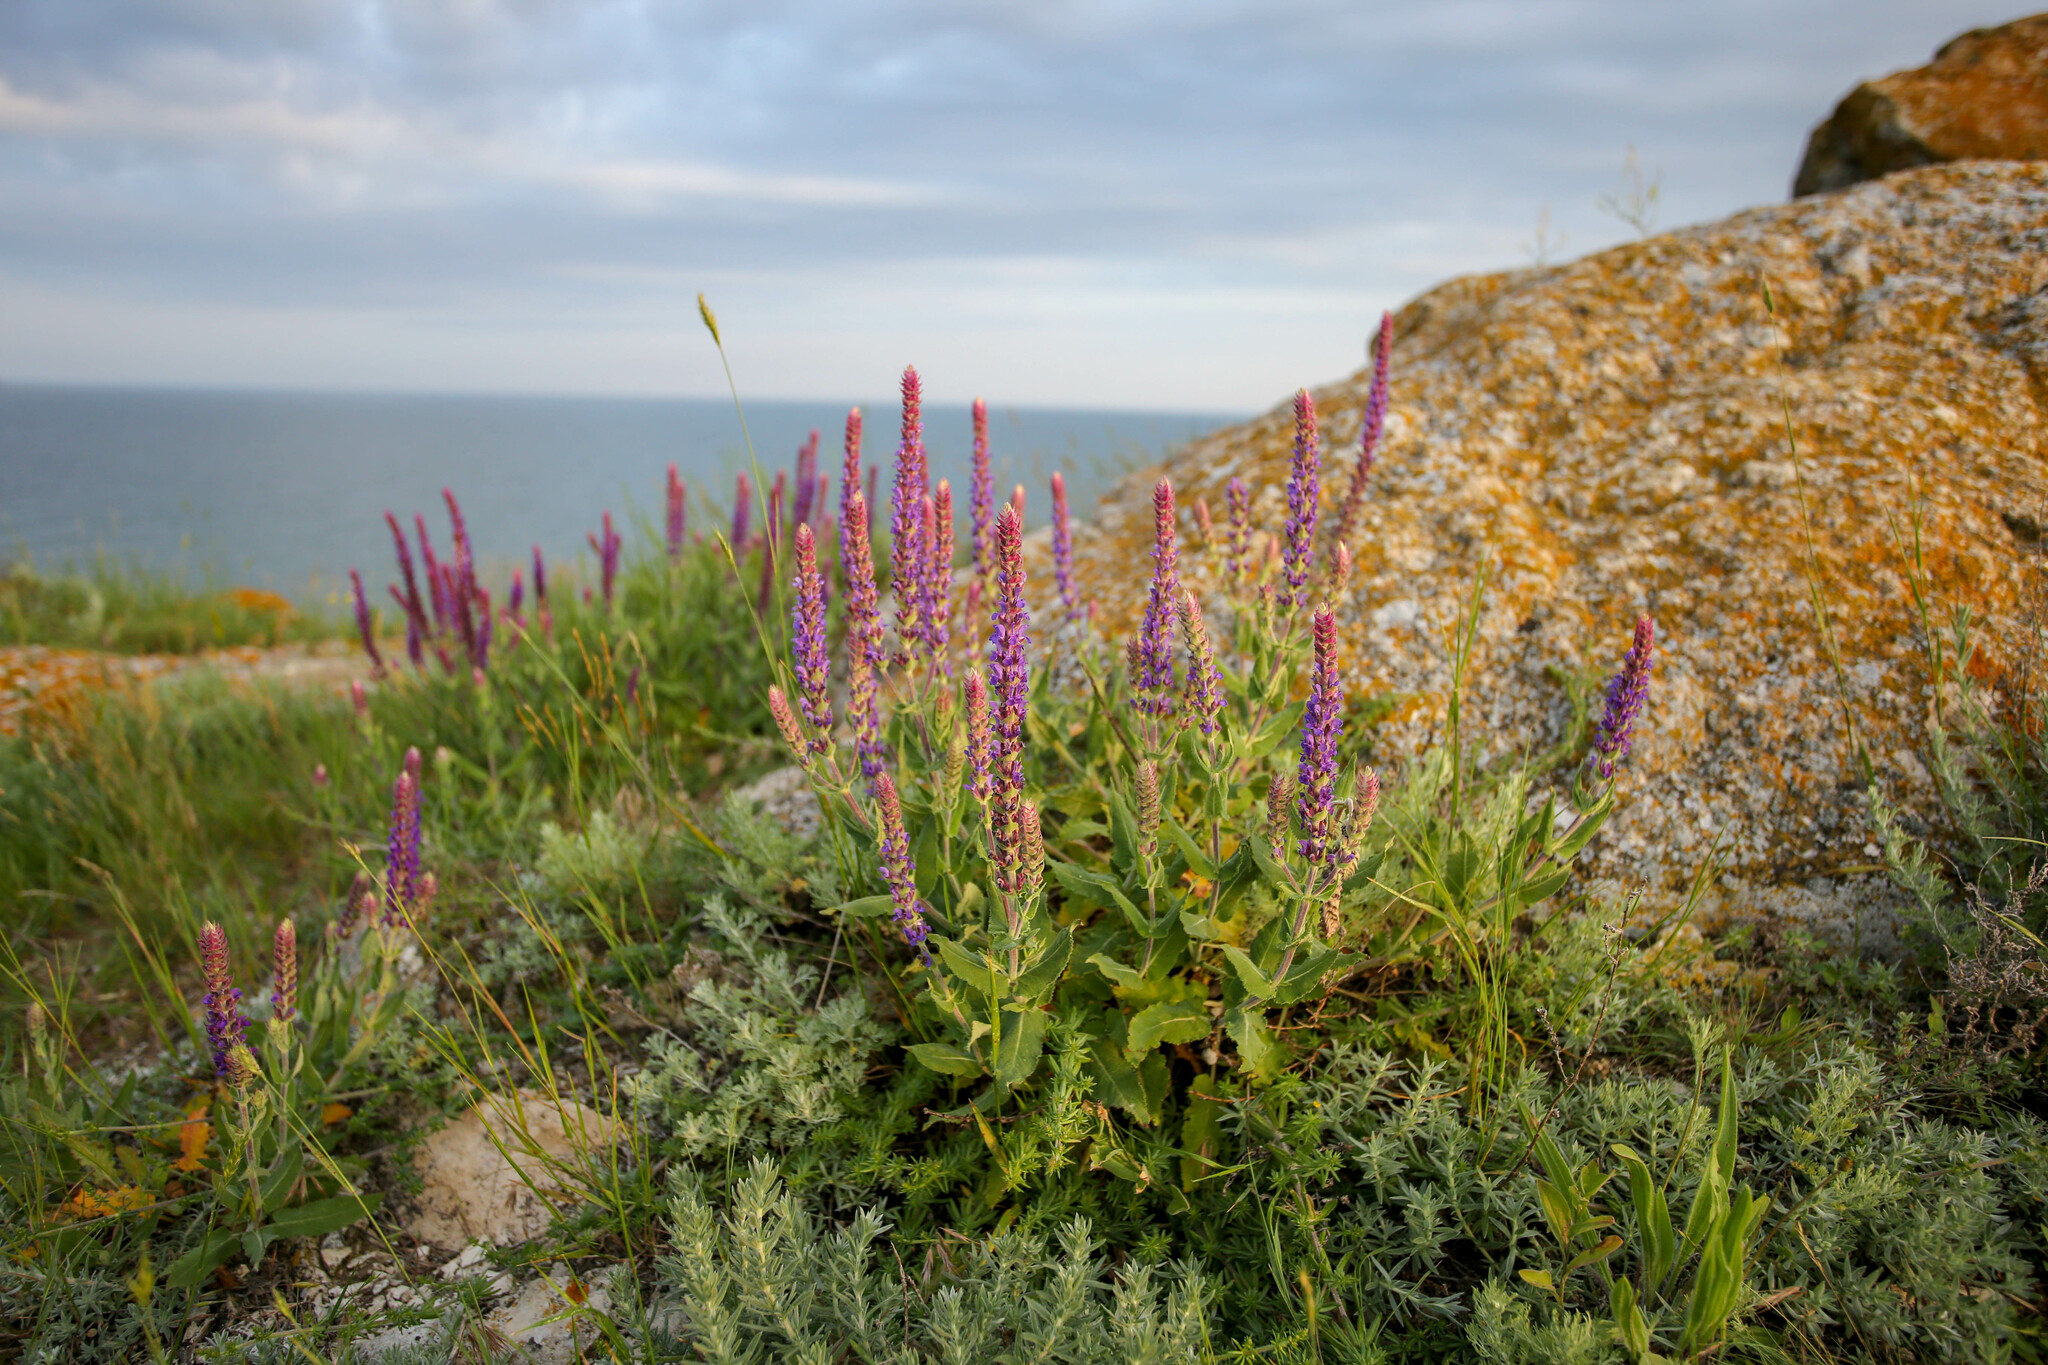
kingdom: Plantae
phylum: Tracheophyta
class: Magnoliopsida
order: Lamiales
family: Lamiaceae
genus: Salvia
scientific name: Salvia nemorosa
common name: Balkan clary
